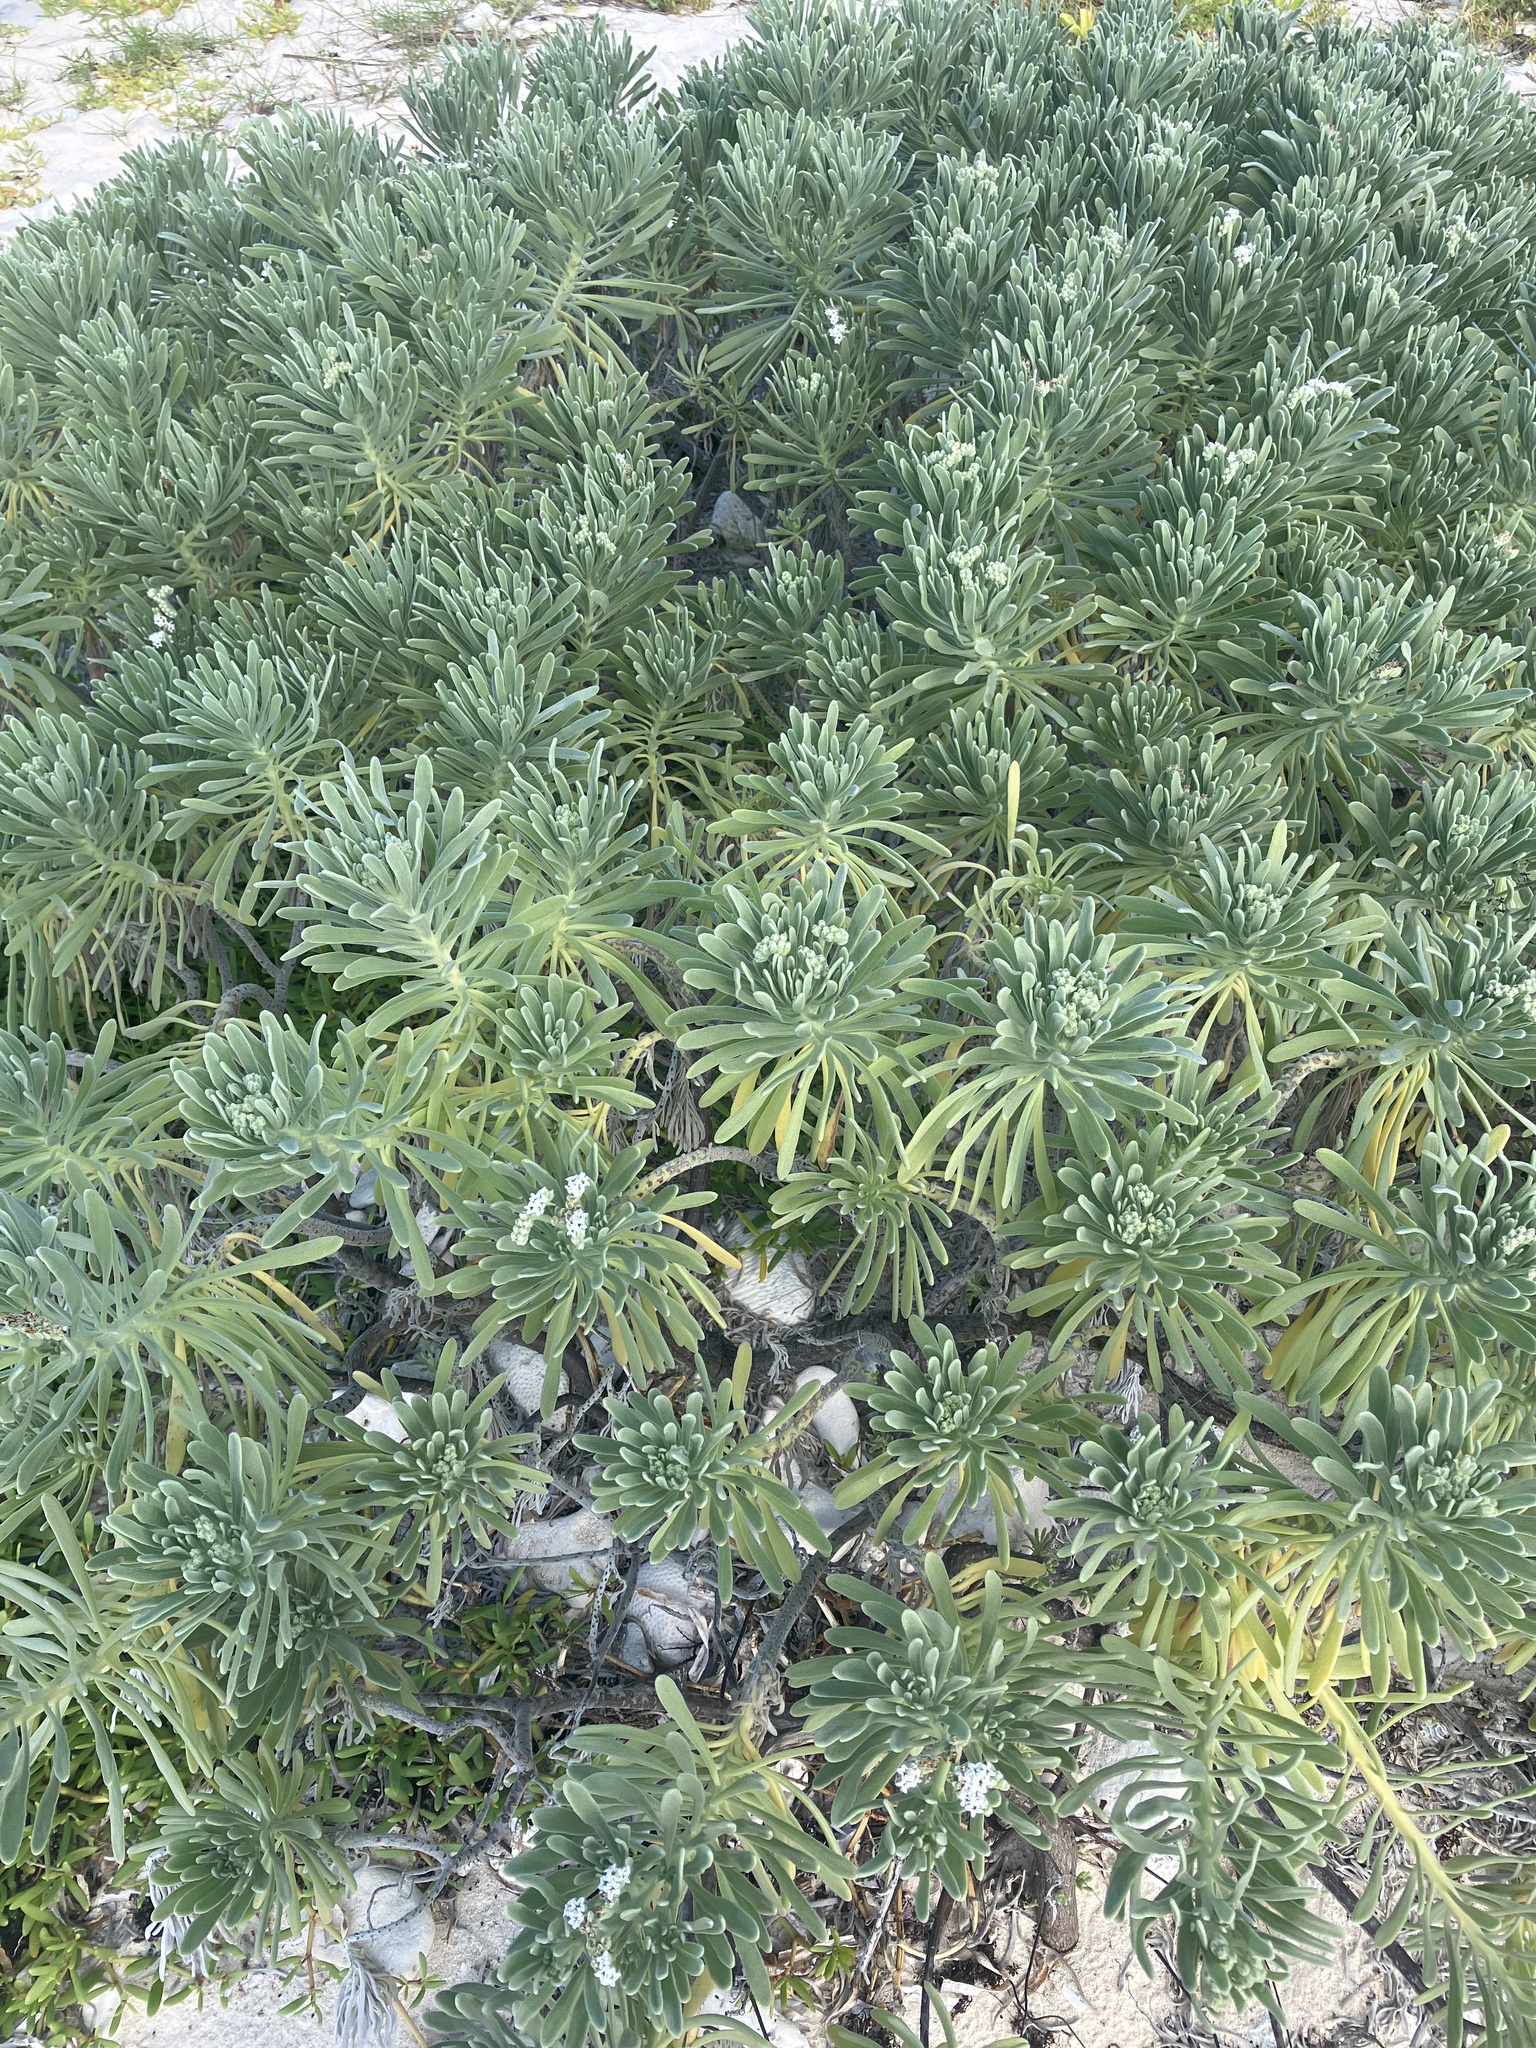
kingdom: Plantae
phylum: Tracheophyta
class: Magnoliopsida
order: Boraginales
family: Heliotropiaceae
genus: Tournefortia
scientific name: Tournefortia gnaphalodes
